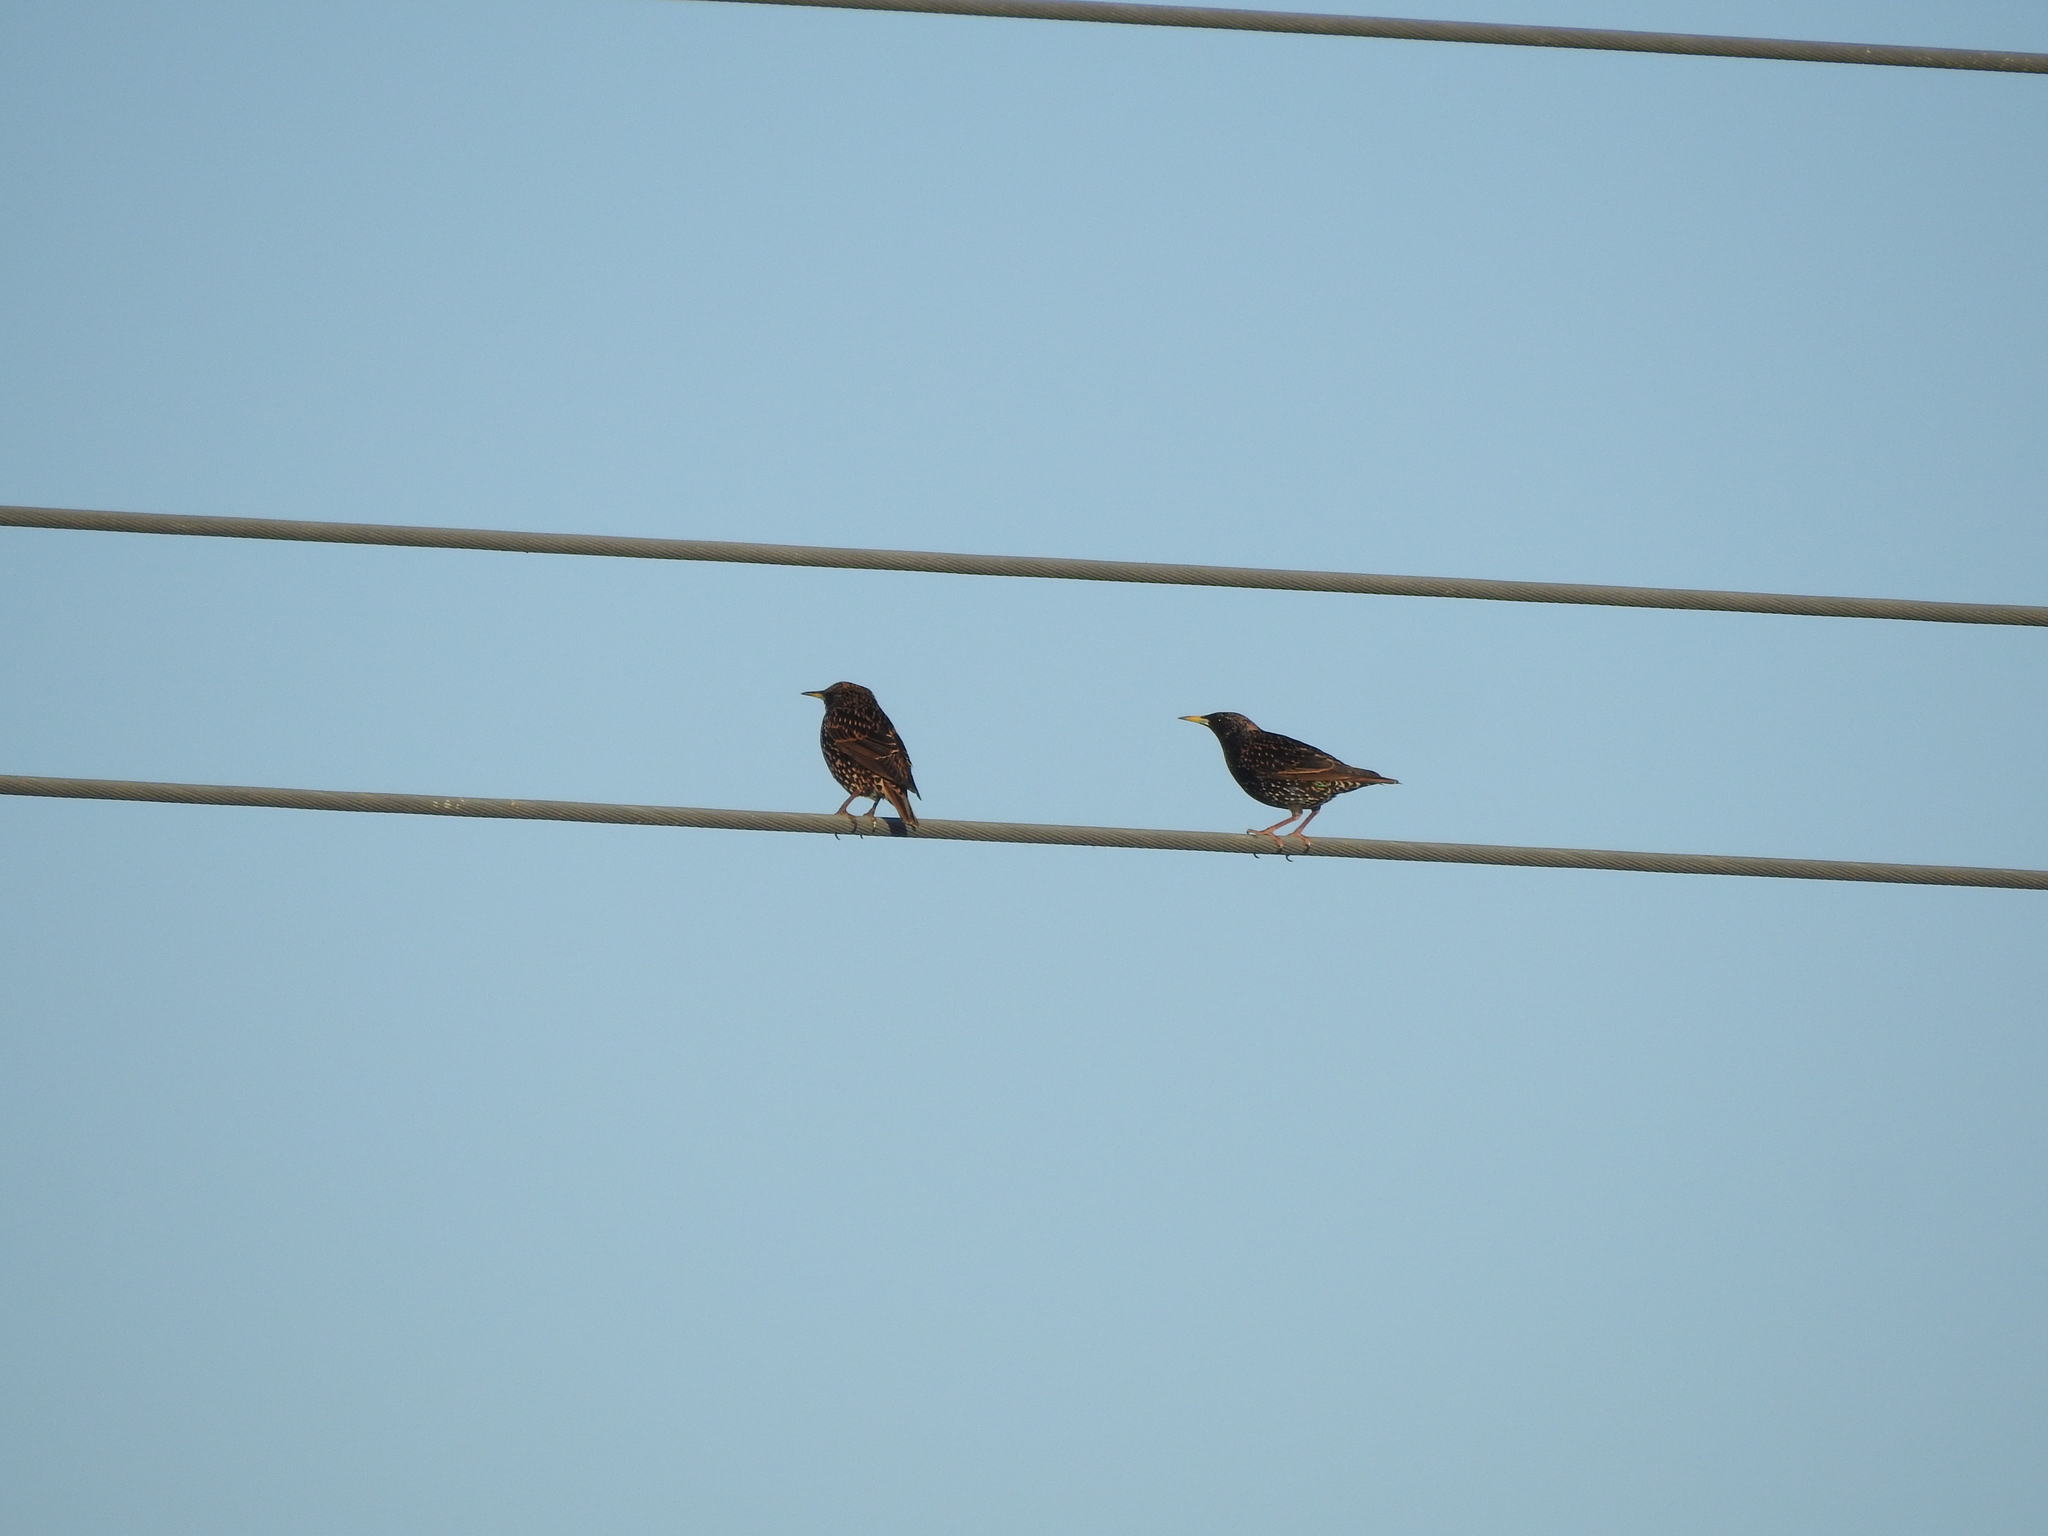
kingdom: Animalia
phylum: Chordata
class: Aves
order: Passeriformes
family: Sturnidae
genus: Sturnus
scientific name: Sturnus vulgaris
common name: Common starling
